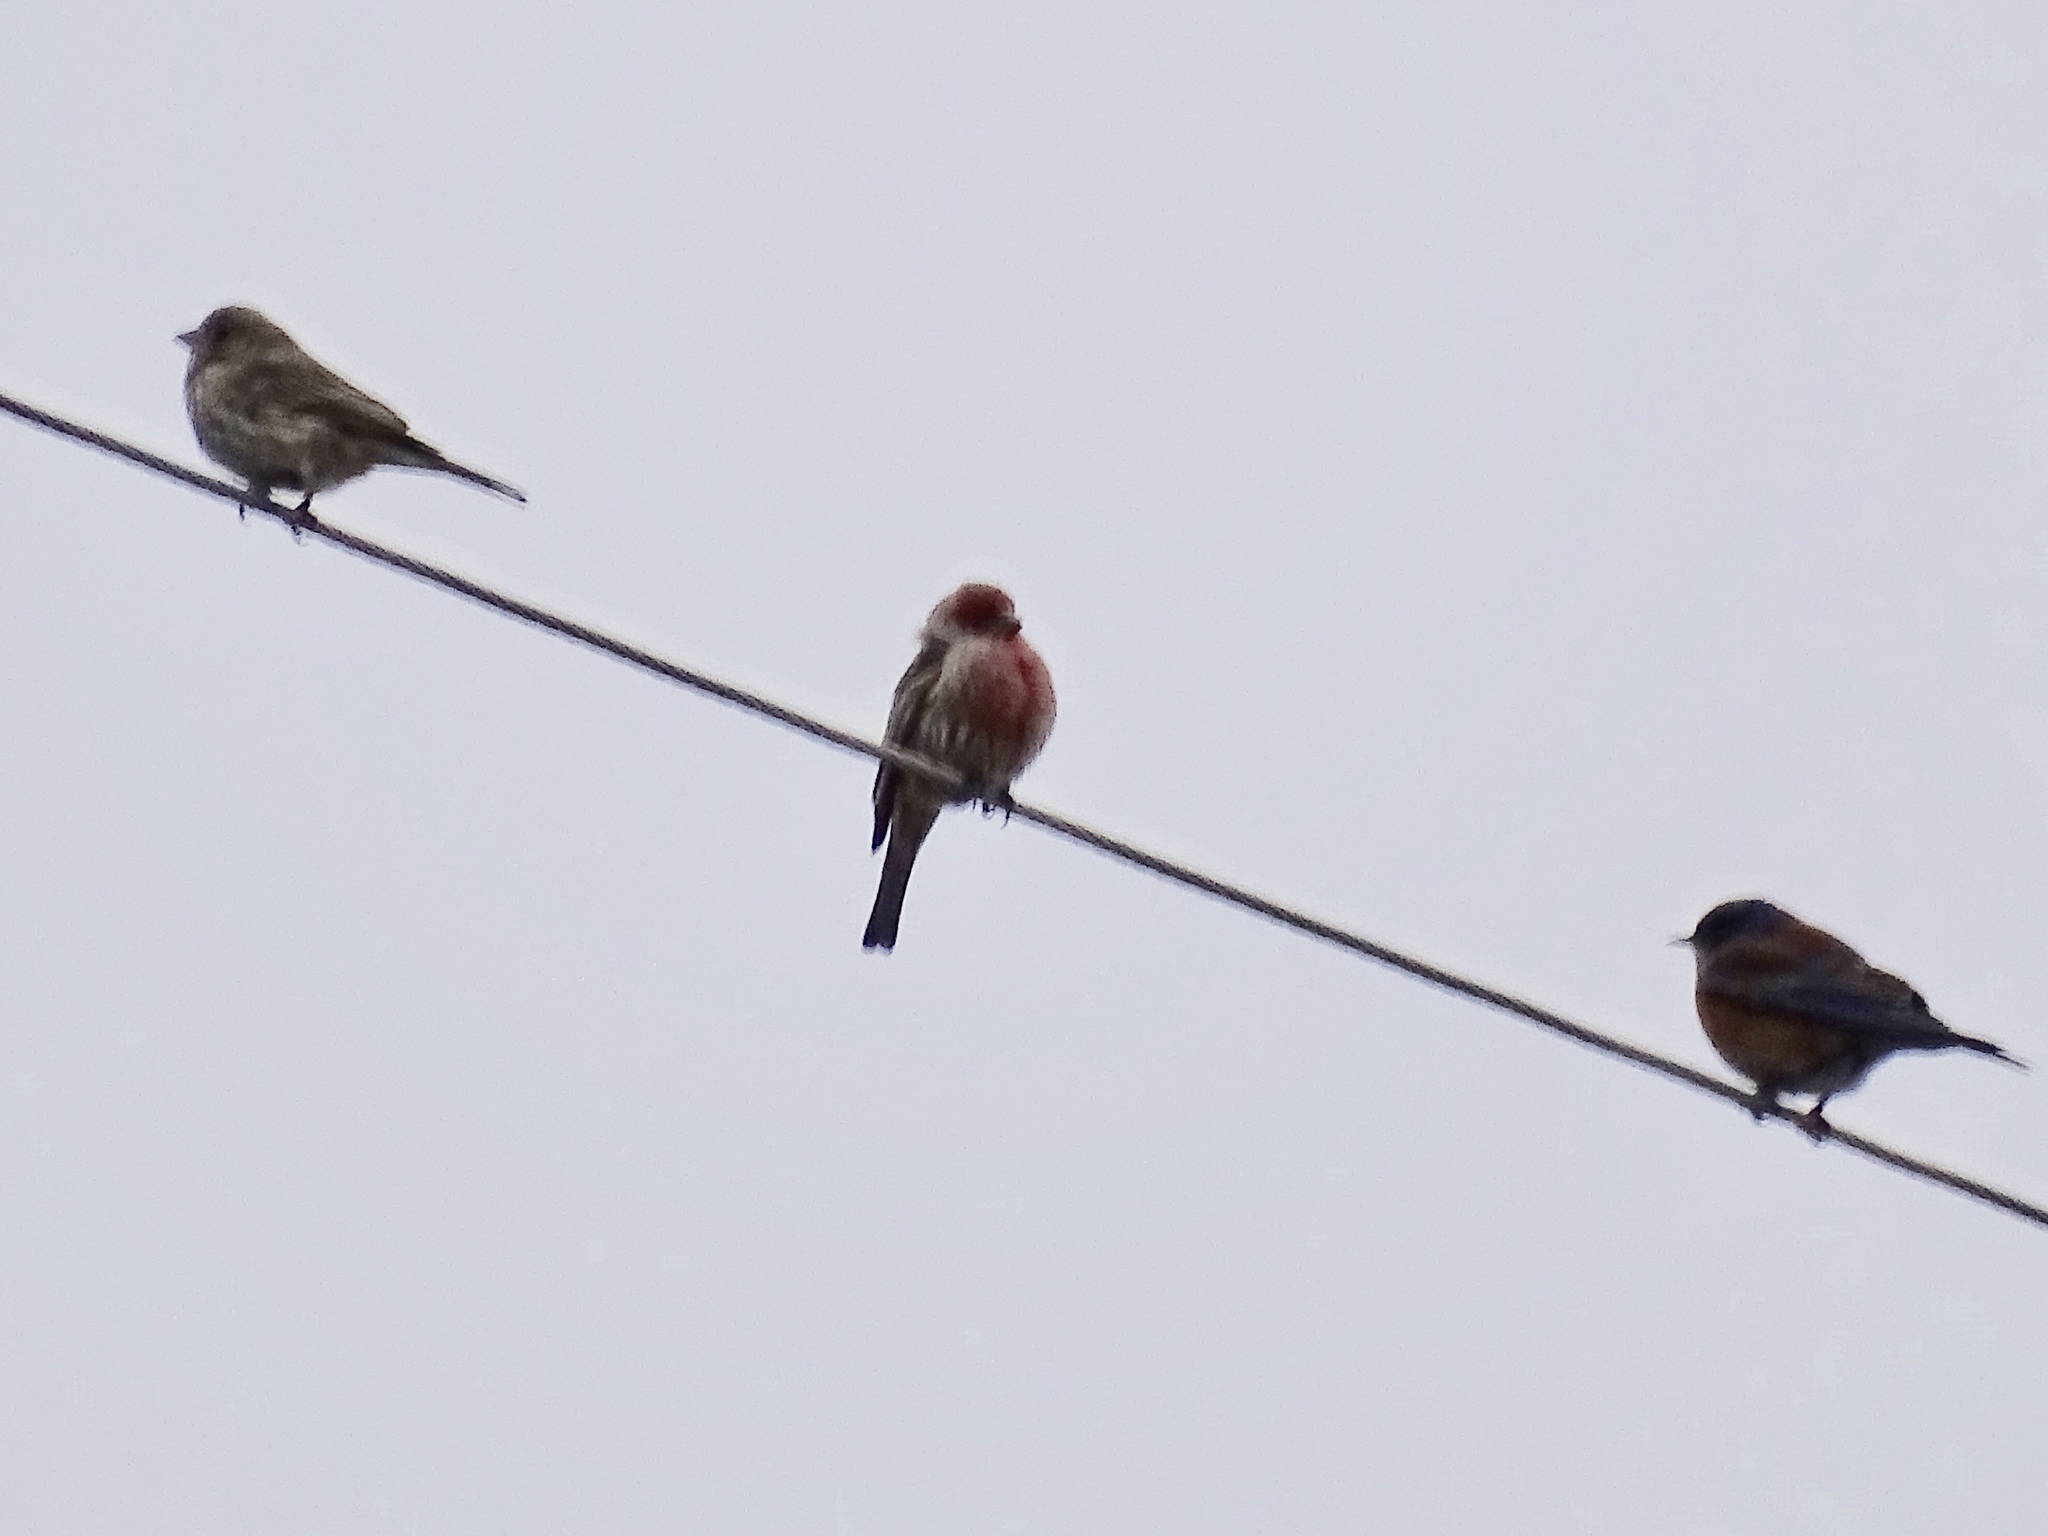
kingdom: Animalia
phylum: Chordata
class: Aves
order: Passeriformes
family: Fringillidae
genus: Haemorhous
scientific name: Haemorhous mexicanus
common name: House finch
